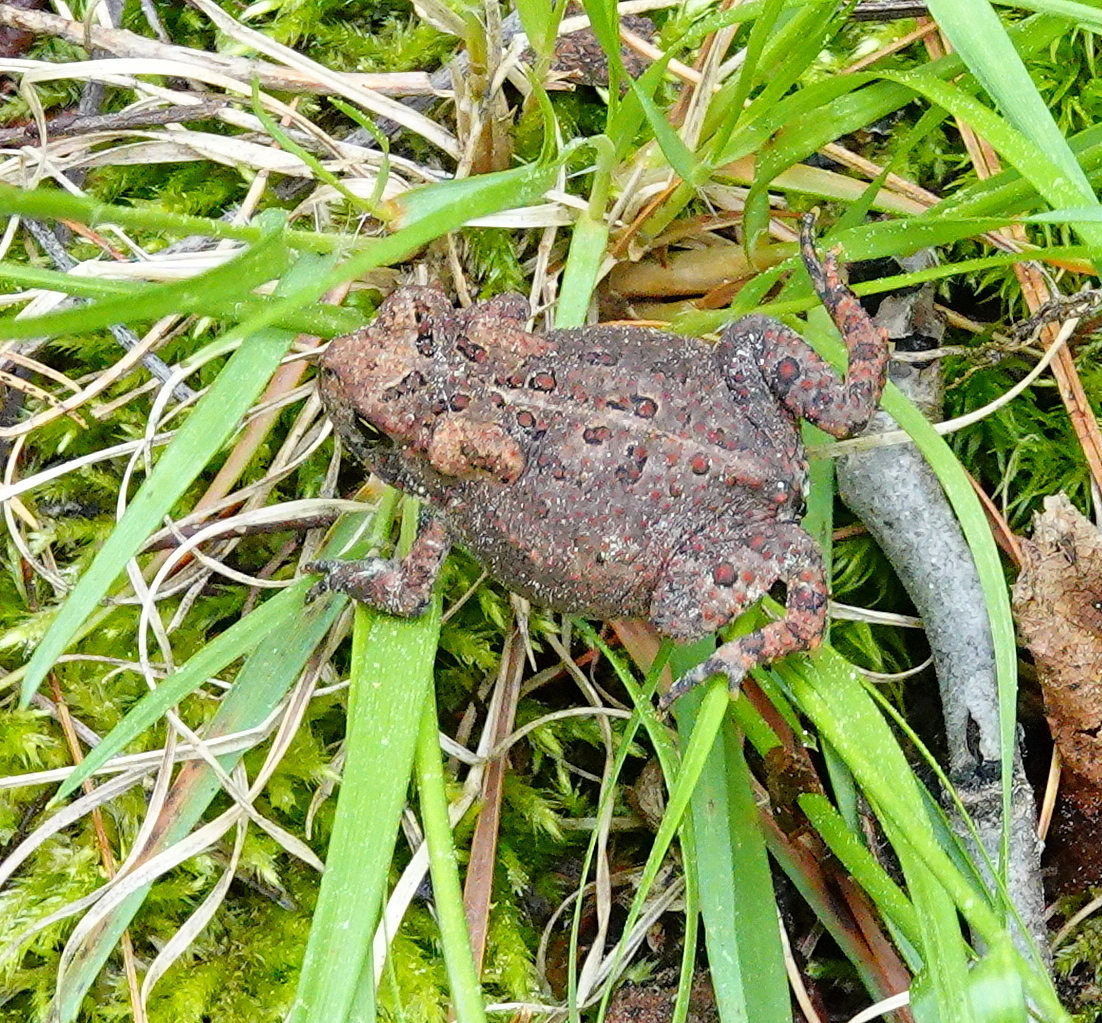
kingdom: Animalia
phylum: Chordata
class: Amphibia
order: Anura
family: Bufonidae
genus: Anaxyrus
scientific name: Anaxyrus americanus
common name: American toad
